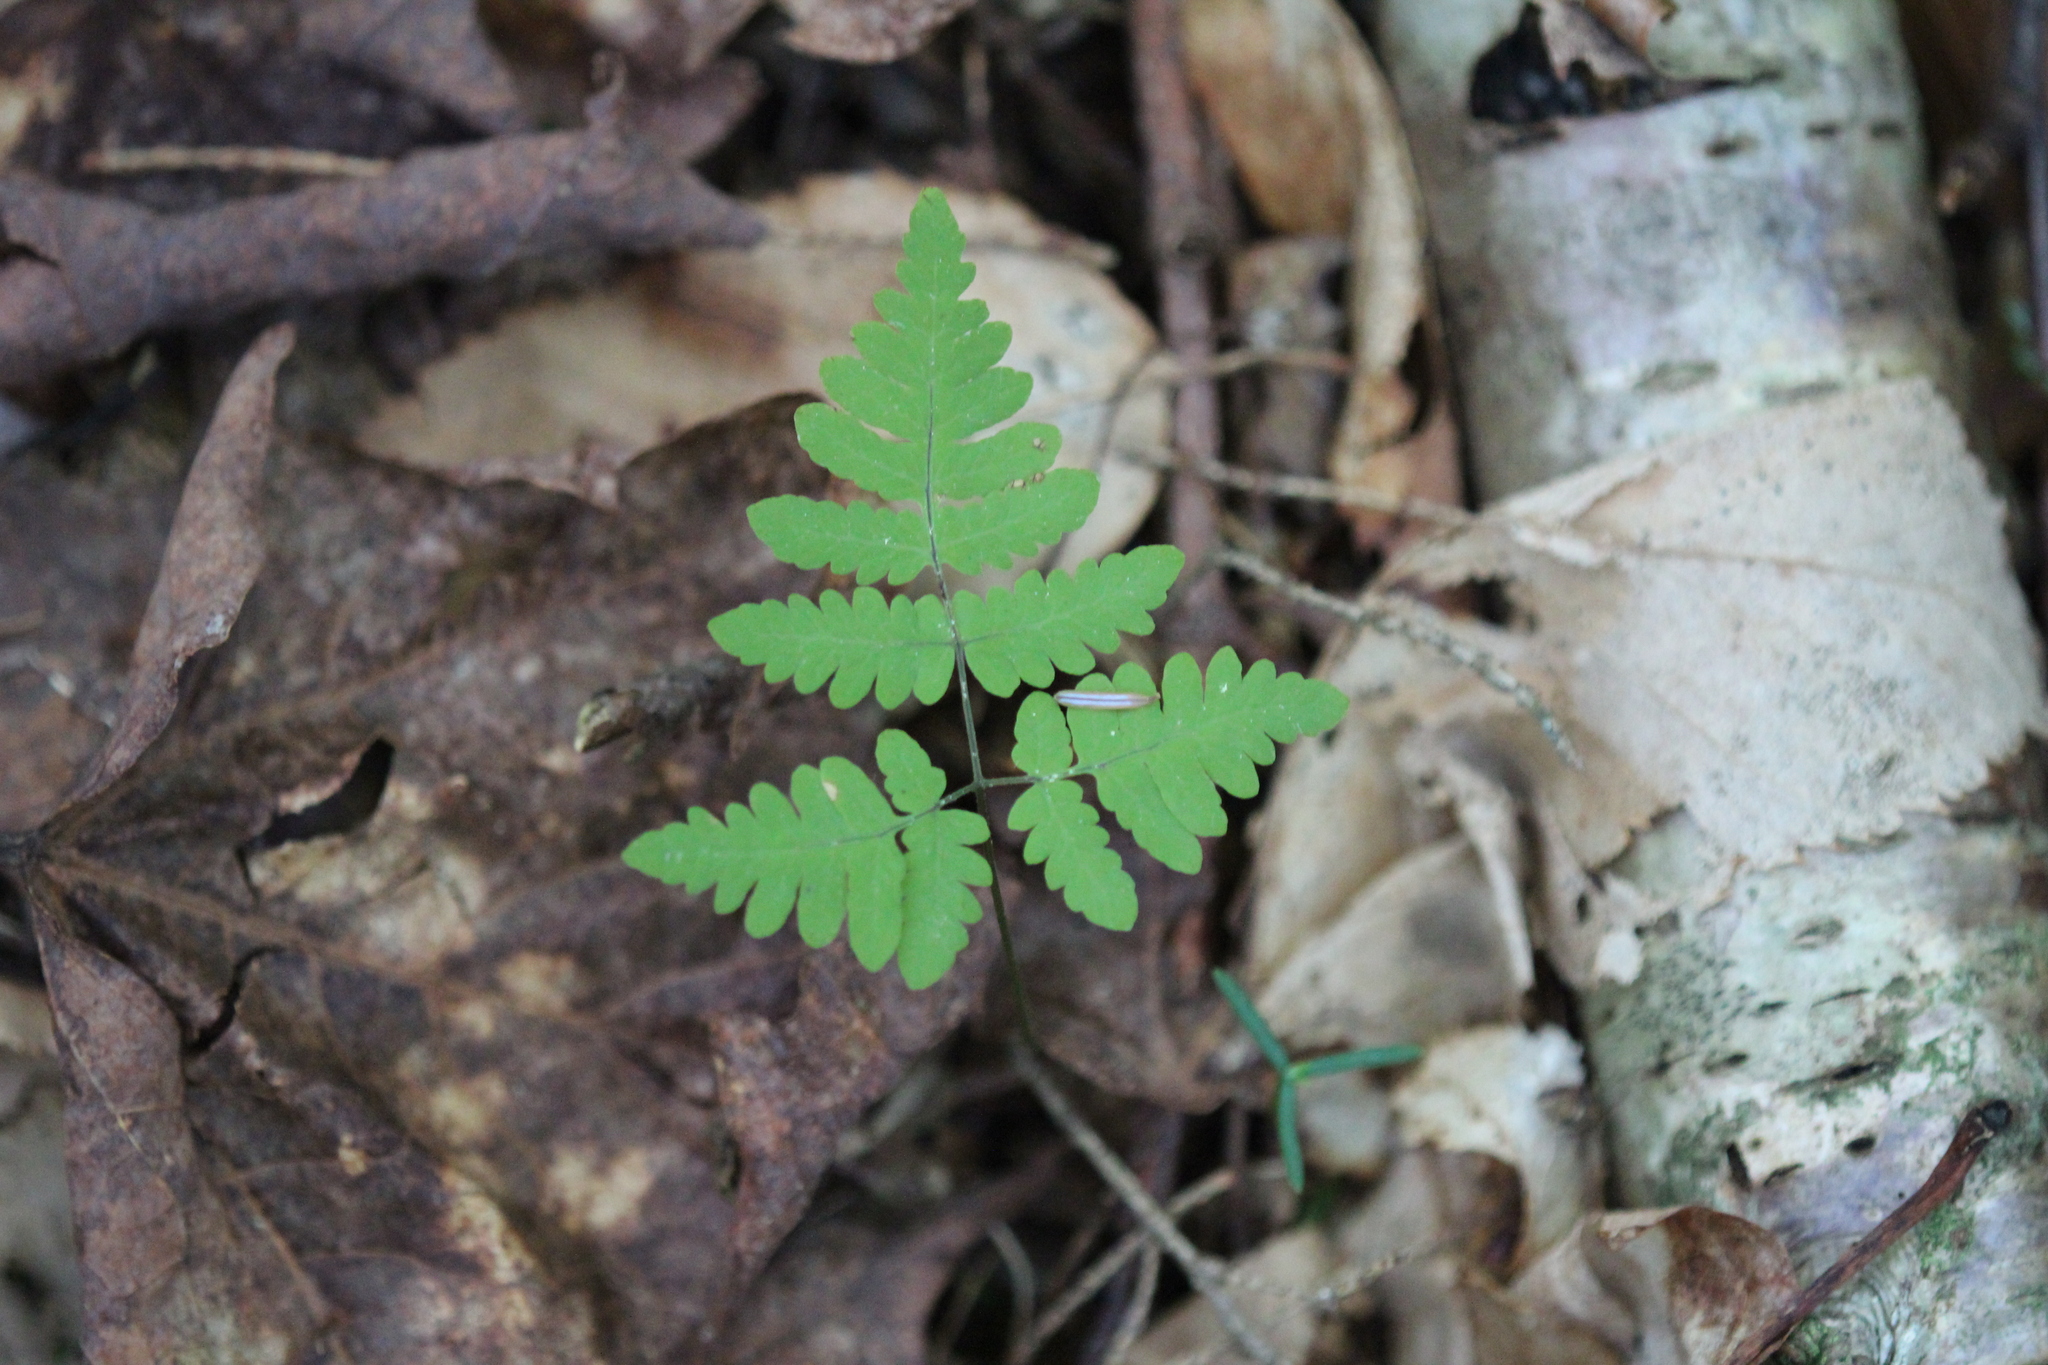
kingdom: Plantae
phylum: Tracheophyta
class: Polypodiopsida
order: Polypodiales
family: Cystopteridaceae
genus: Gymnocarpium
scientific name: Gymnocarpium dryopteris
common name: Oak fern
